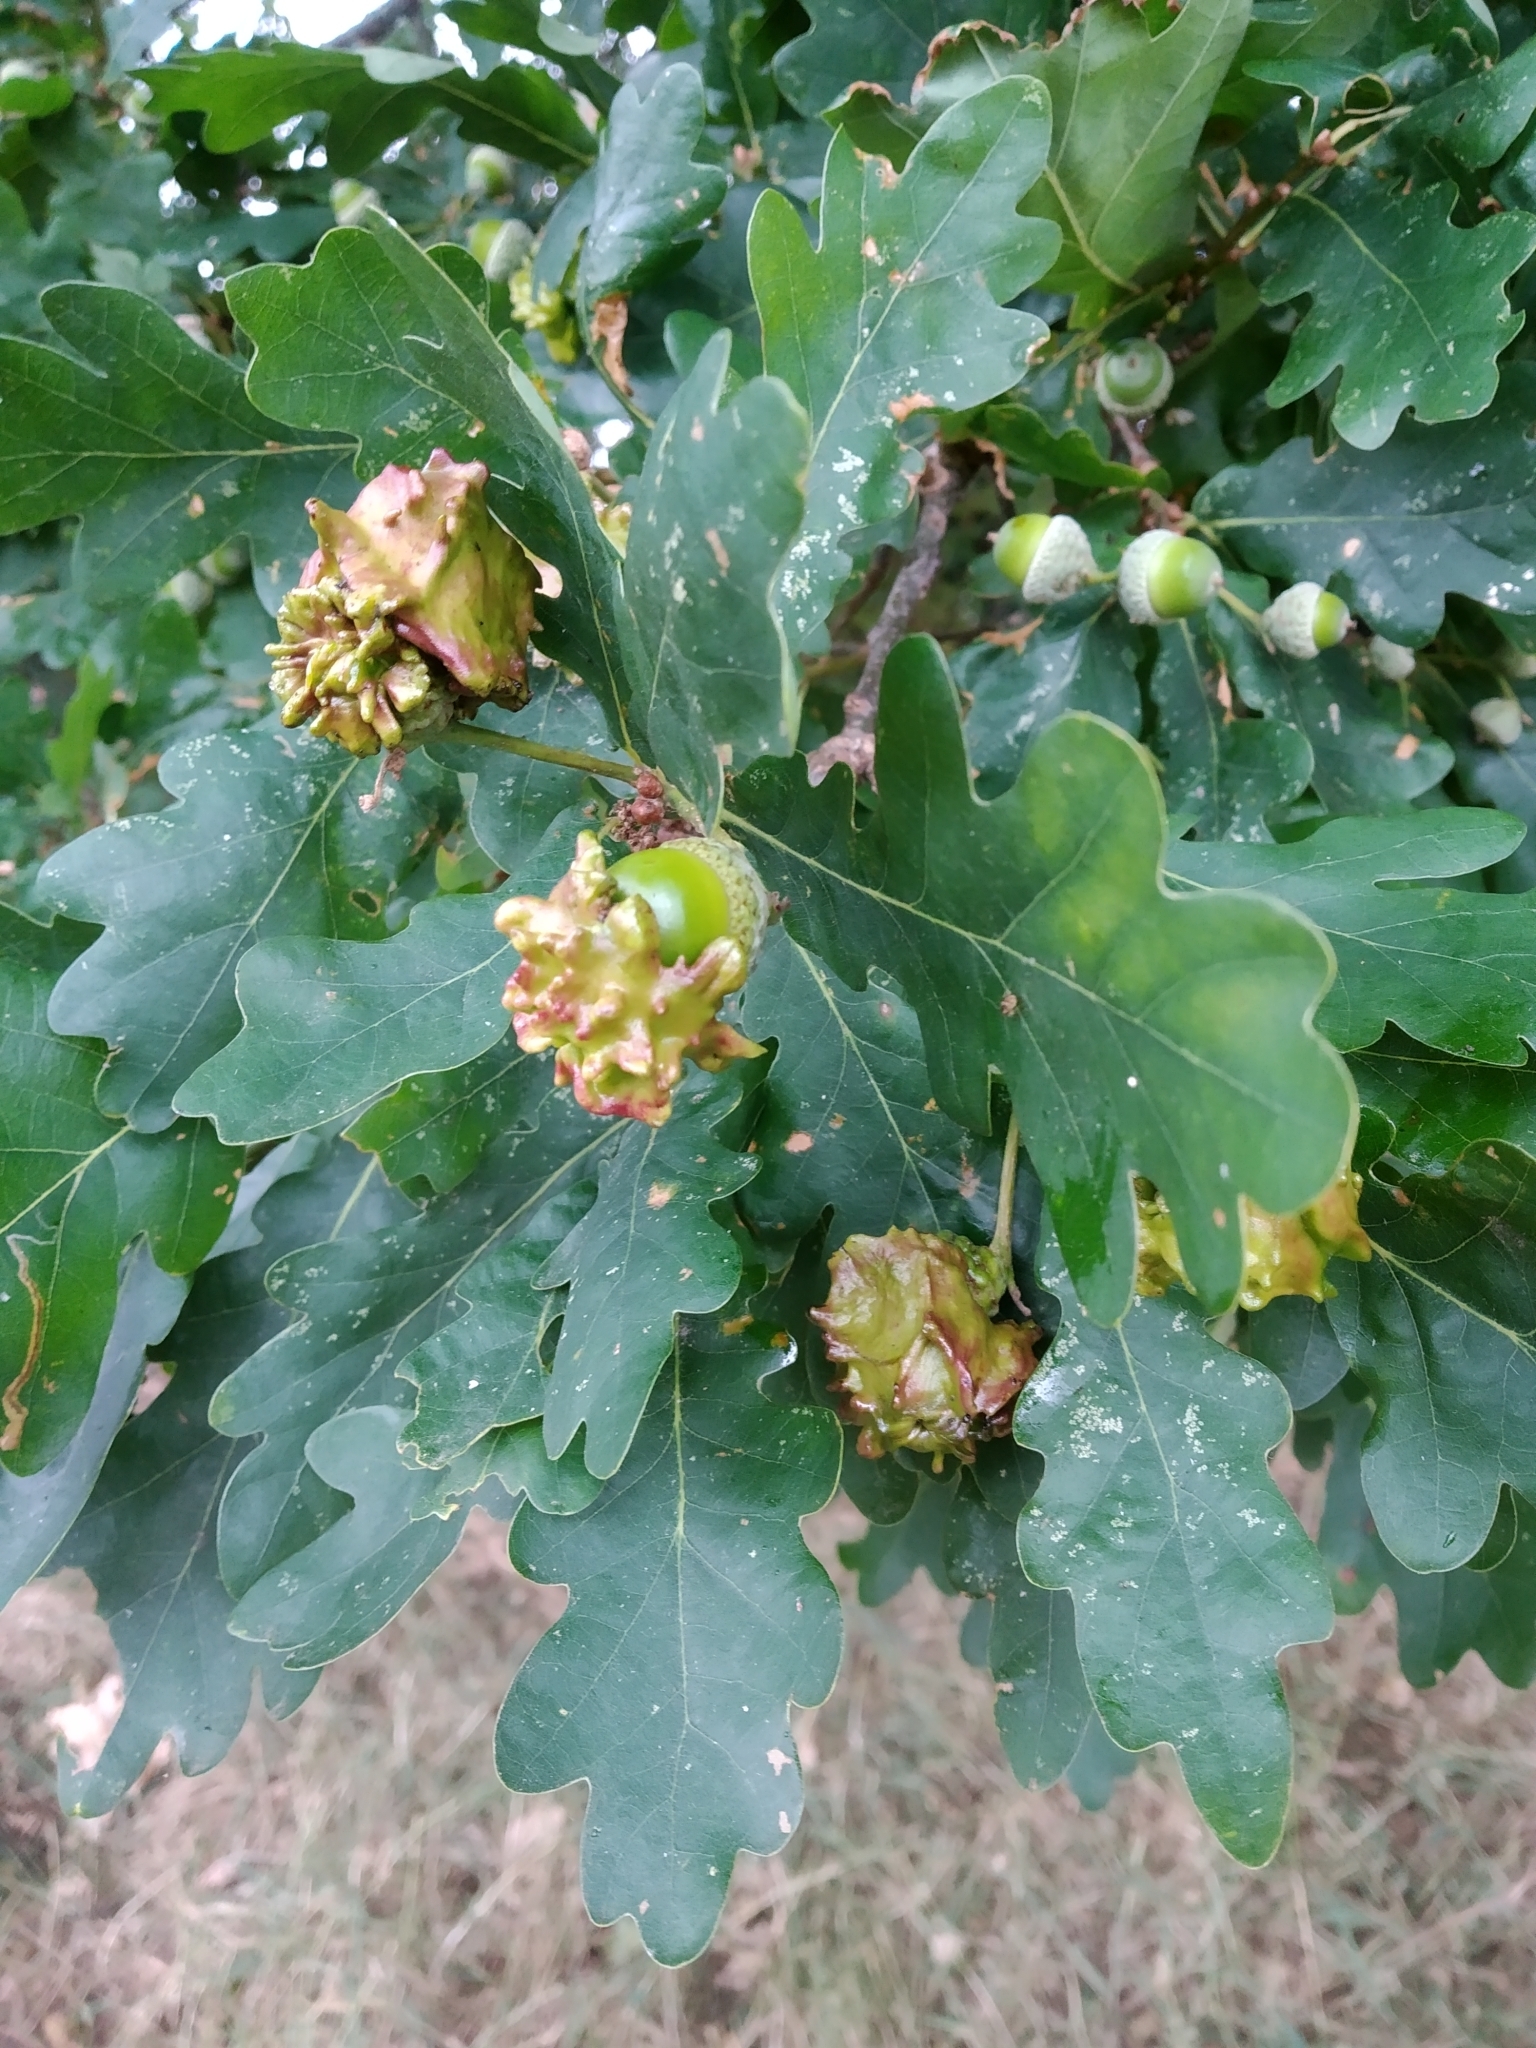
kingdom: Animalia
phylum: Arthropoda
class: Insecta
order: Hymenoptera
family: Cynipidae
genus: Andricus
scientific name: Andricus quercuscalicis
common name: Knopper gall
